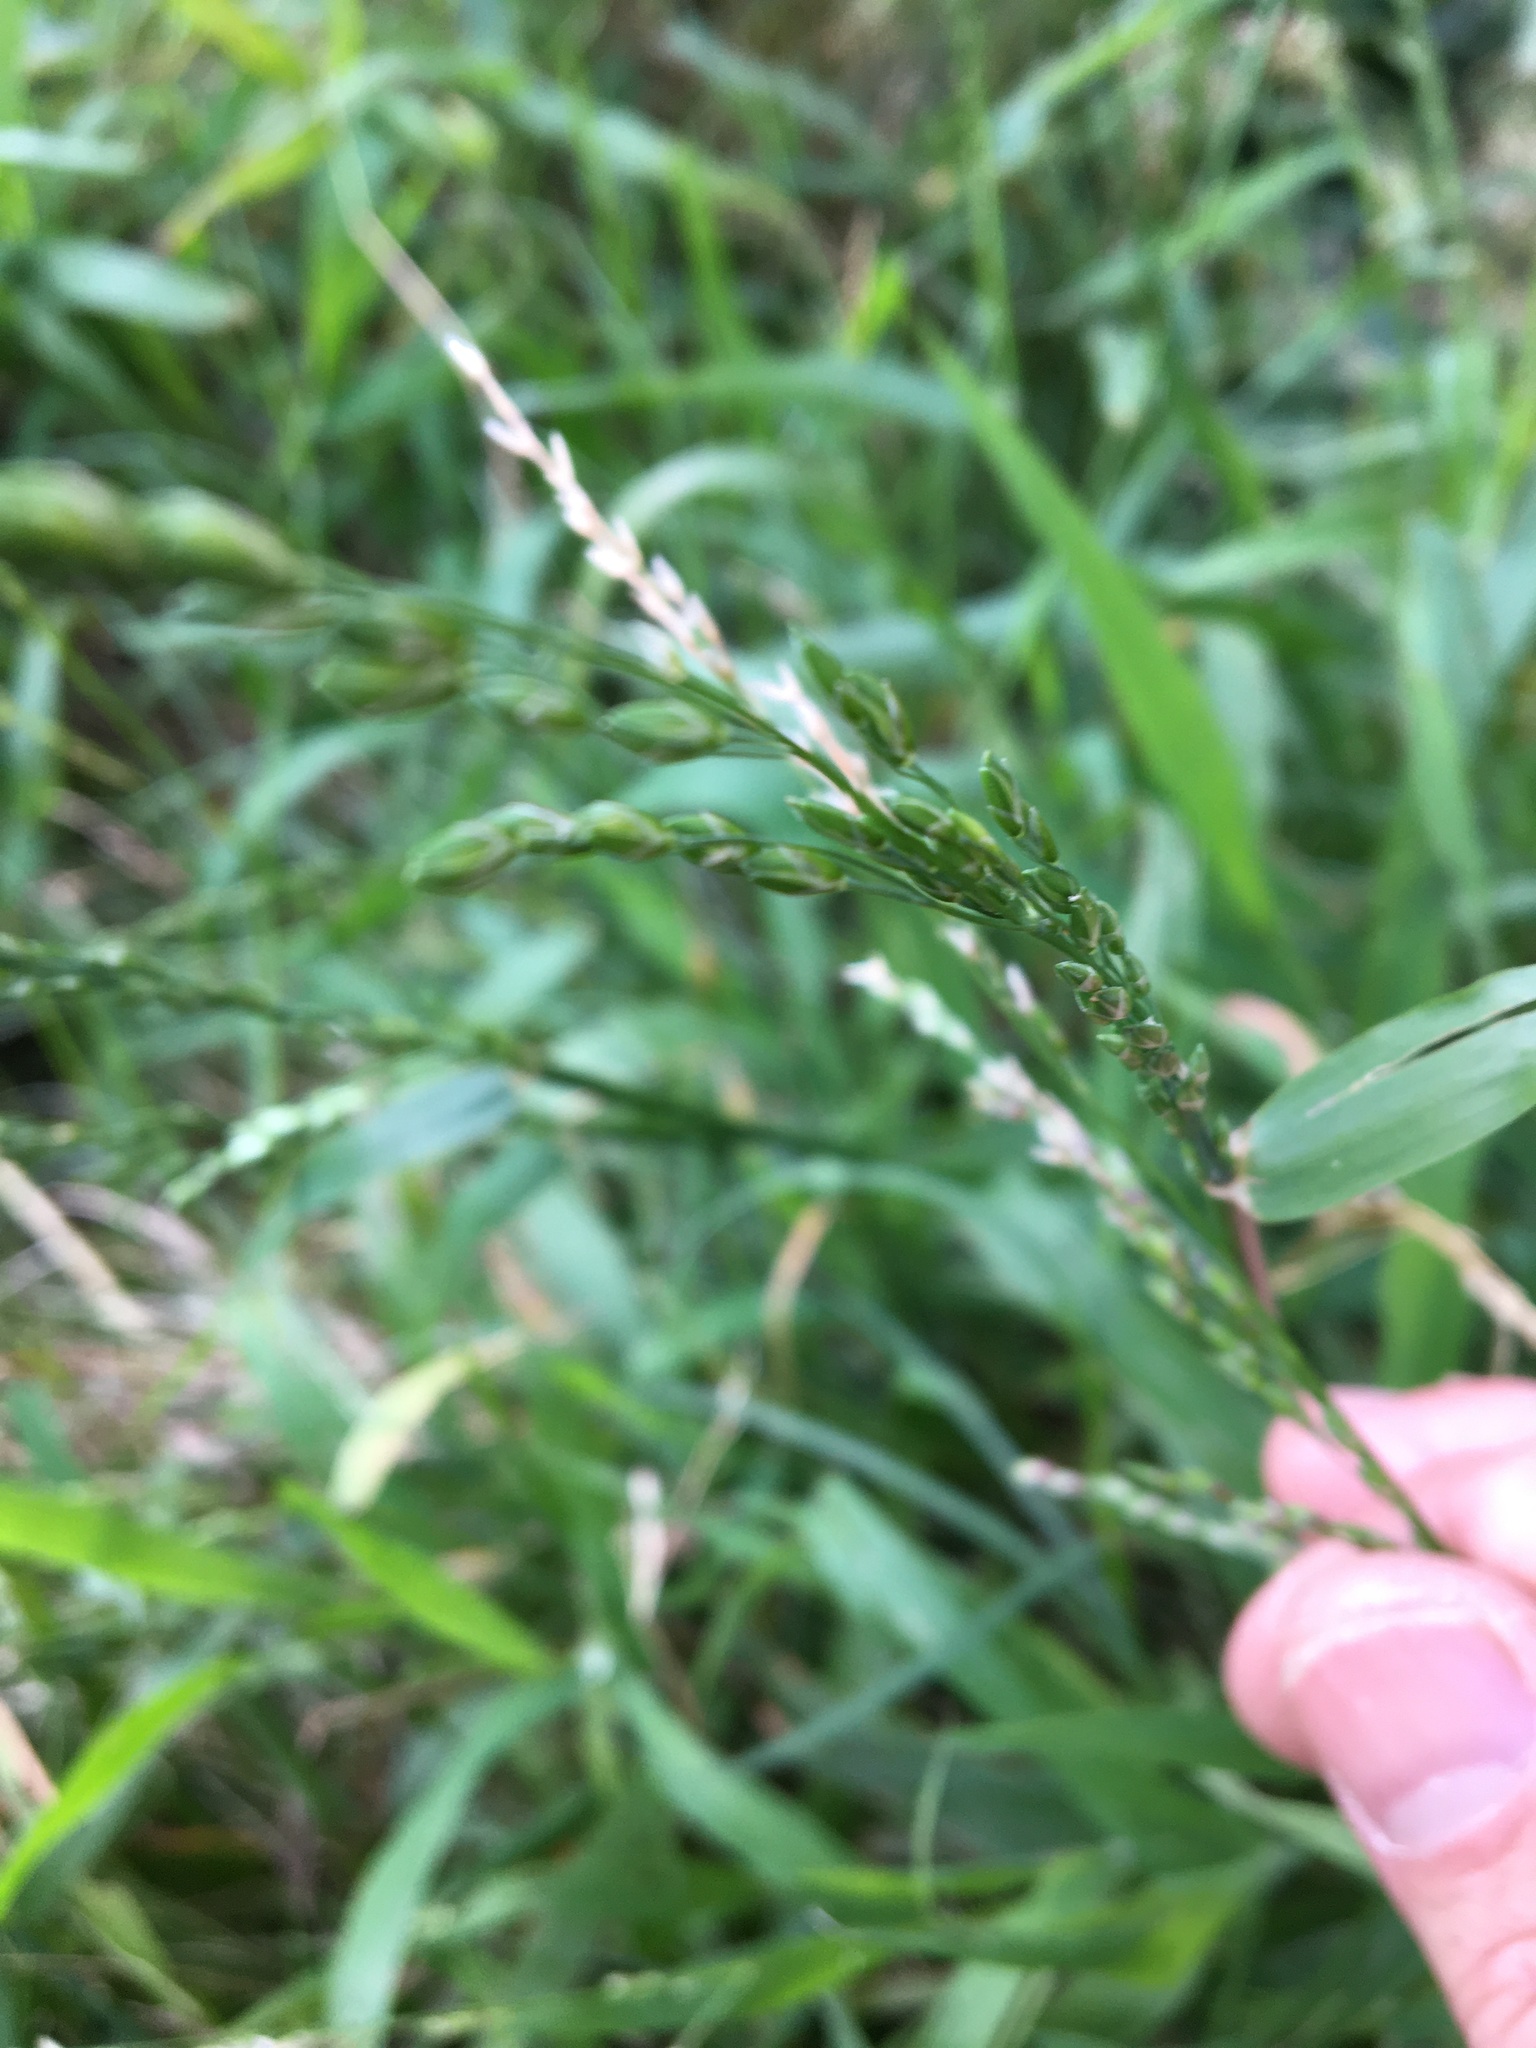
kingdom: Plantae
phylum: Tracheophyta
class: Liliopsida
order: Poales
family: Poaceae
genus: Ehrharta
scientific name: Ehrharta
